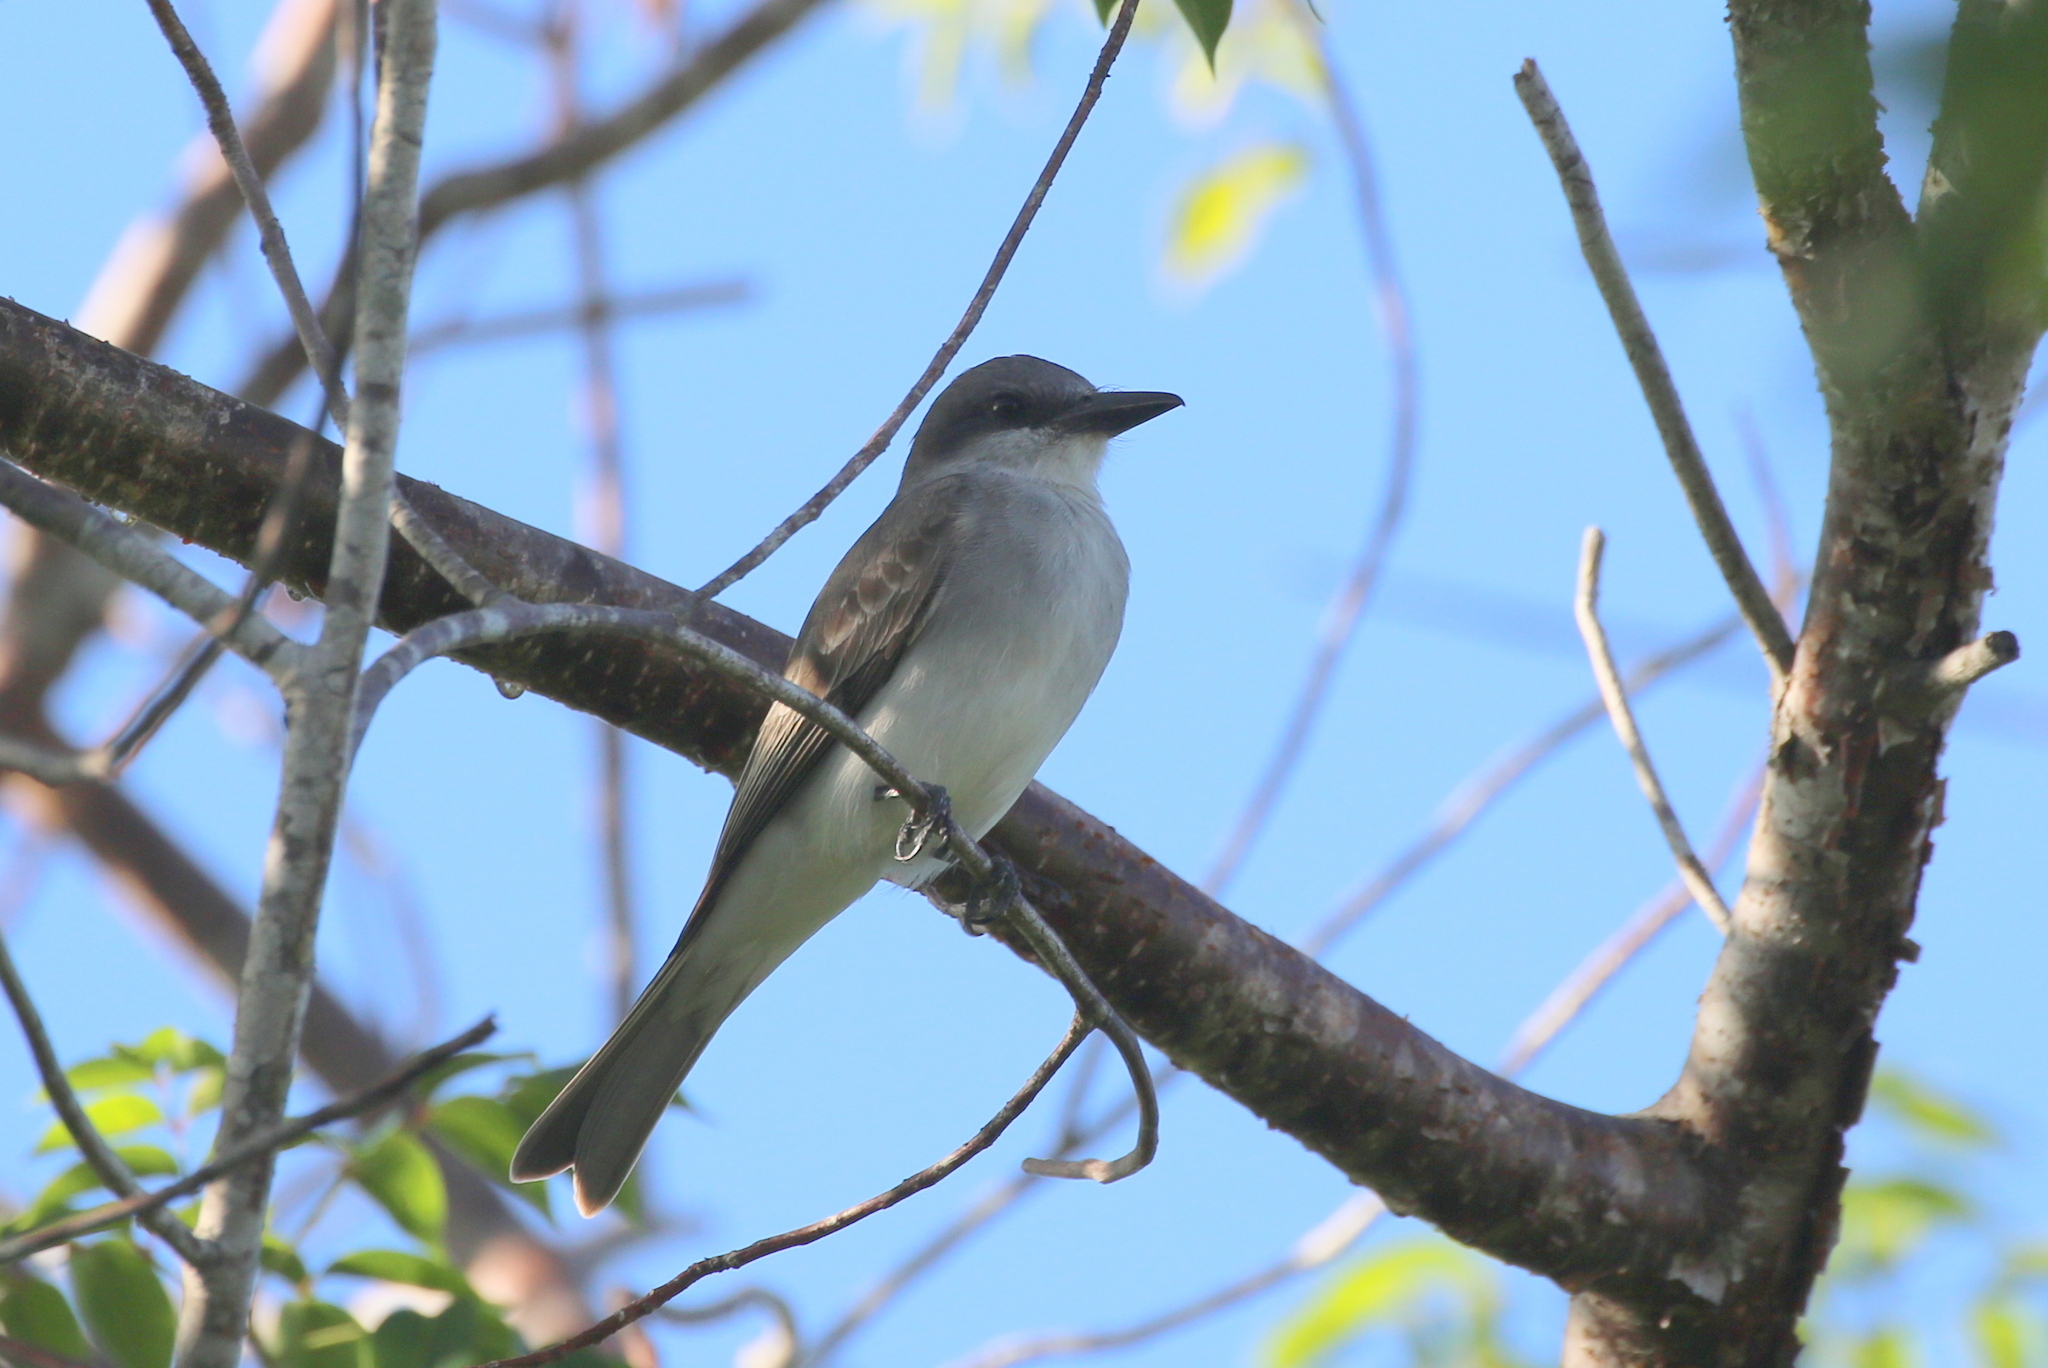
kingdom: Animalia
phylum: Chordata
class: Aves
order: Passeriformes
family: Tyrannidae
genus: Tyrannus
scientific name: Tyrannus dominicensis
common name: Gray kingbird
